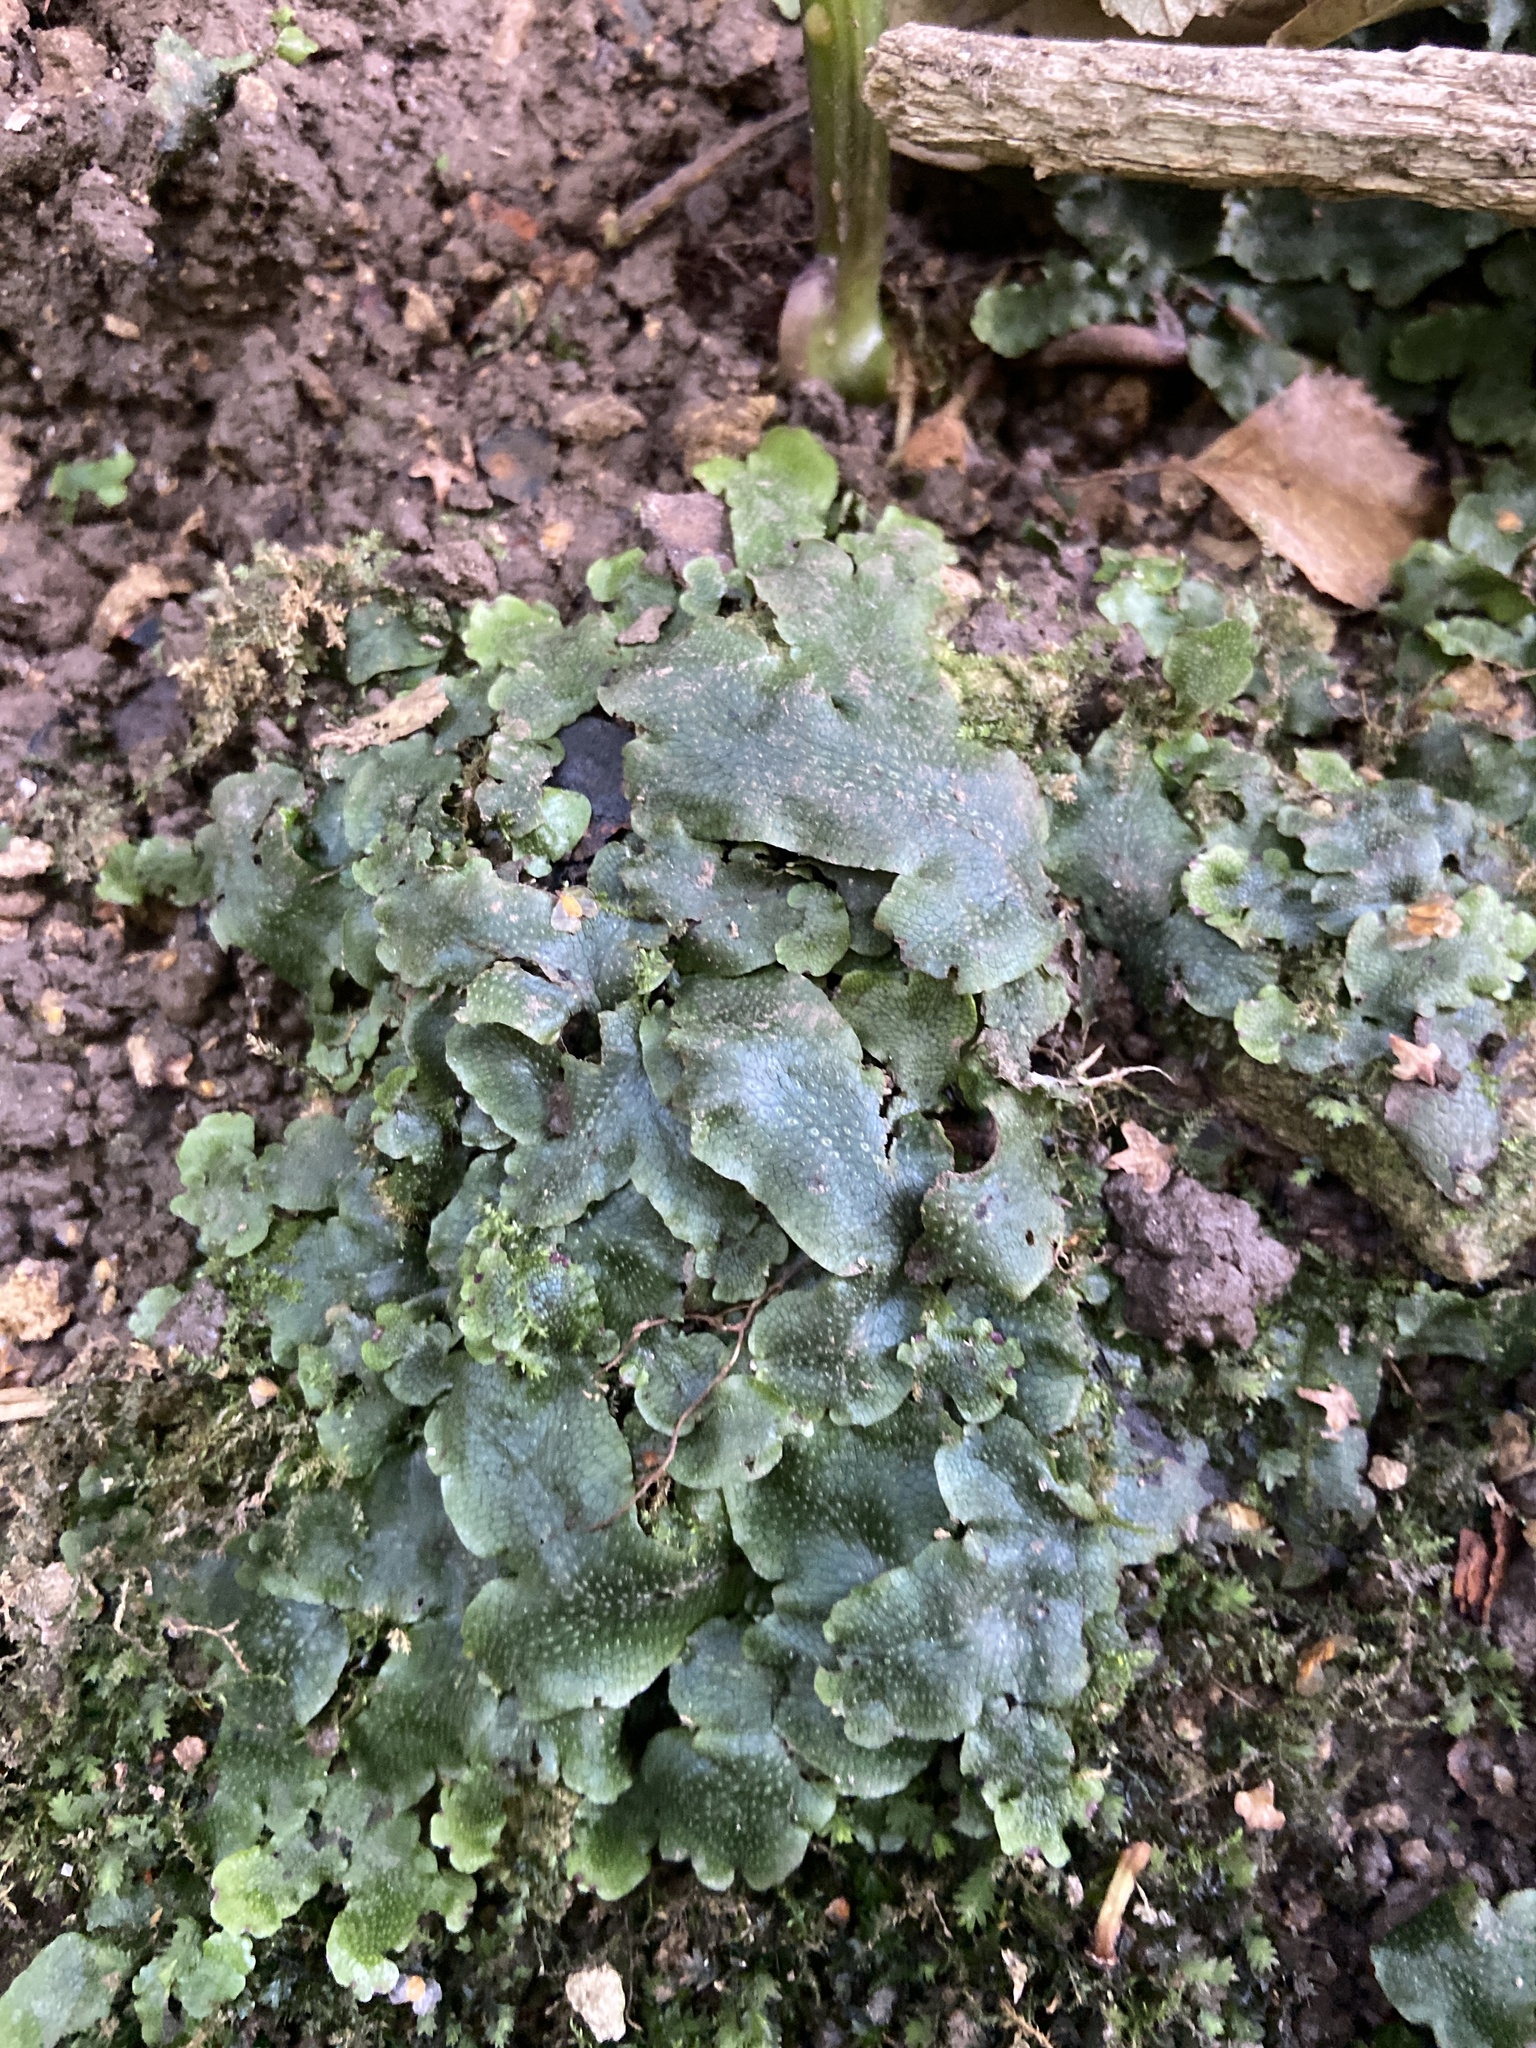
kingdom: Plantae
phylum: Marchantiophyta
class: Marchantiopsida
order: Marchantiales
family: Conocephalaceae
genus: Conocephalum
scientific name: Conocephalum salebrosum
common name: Cat-tongue liverwort
